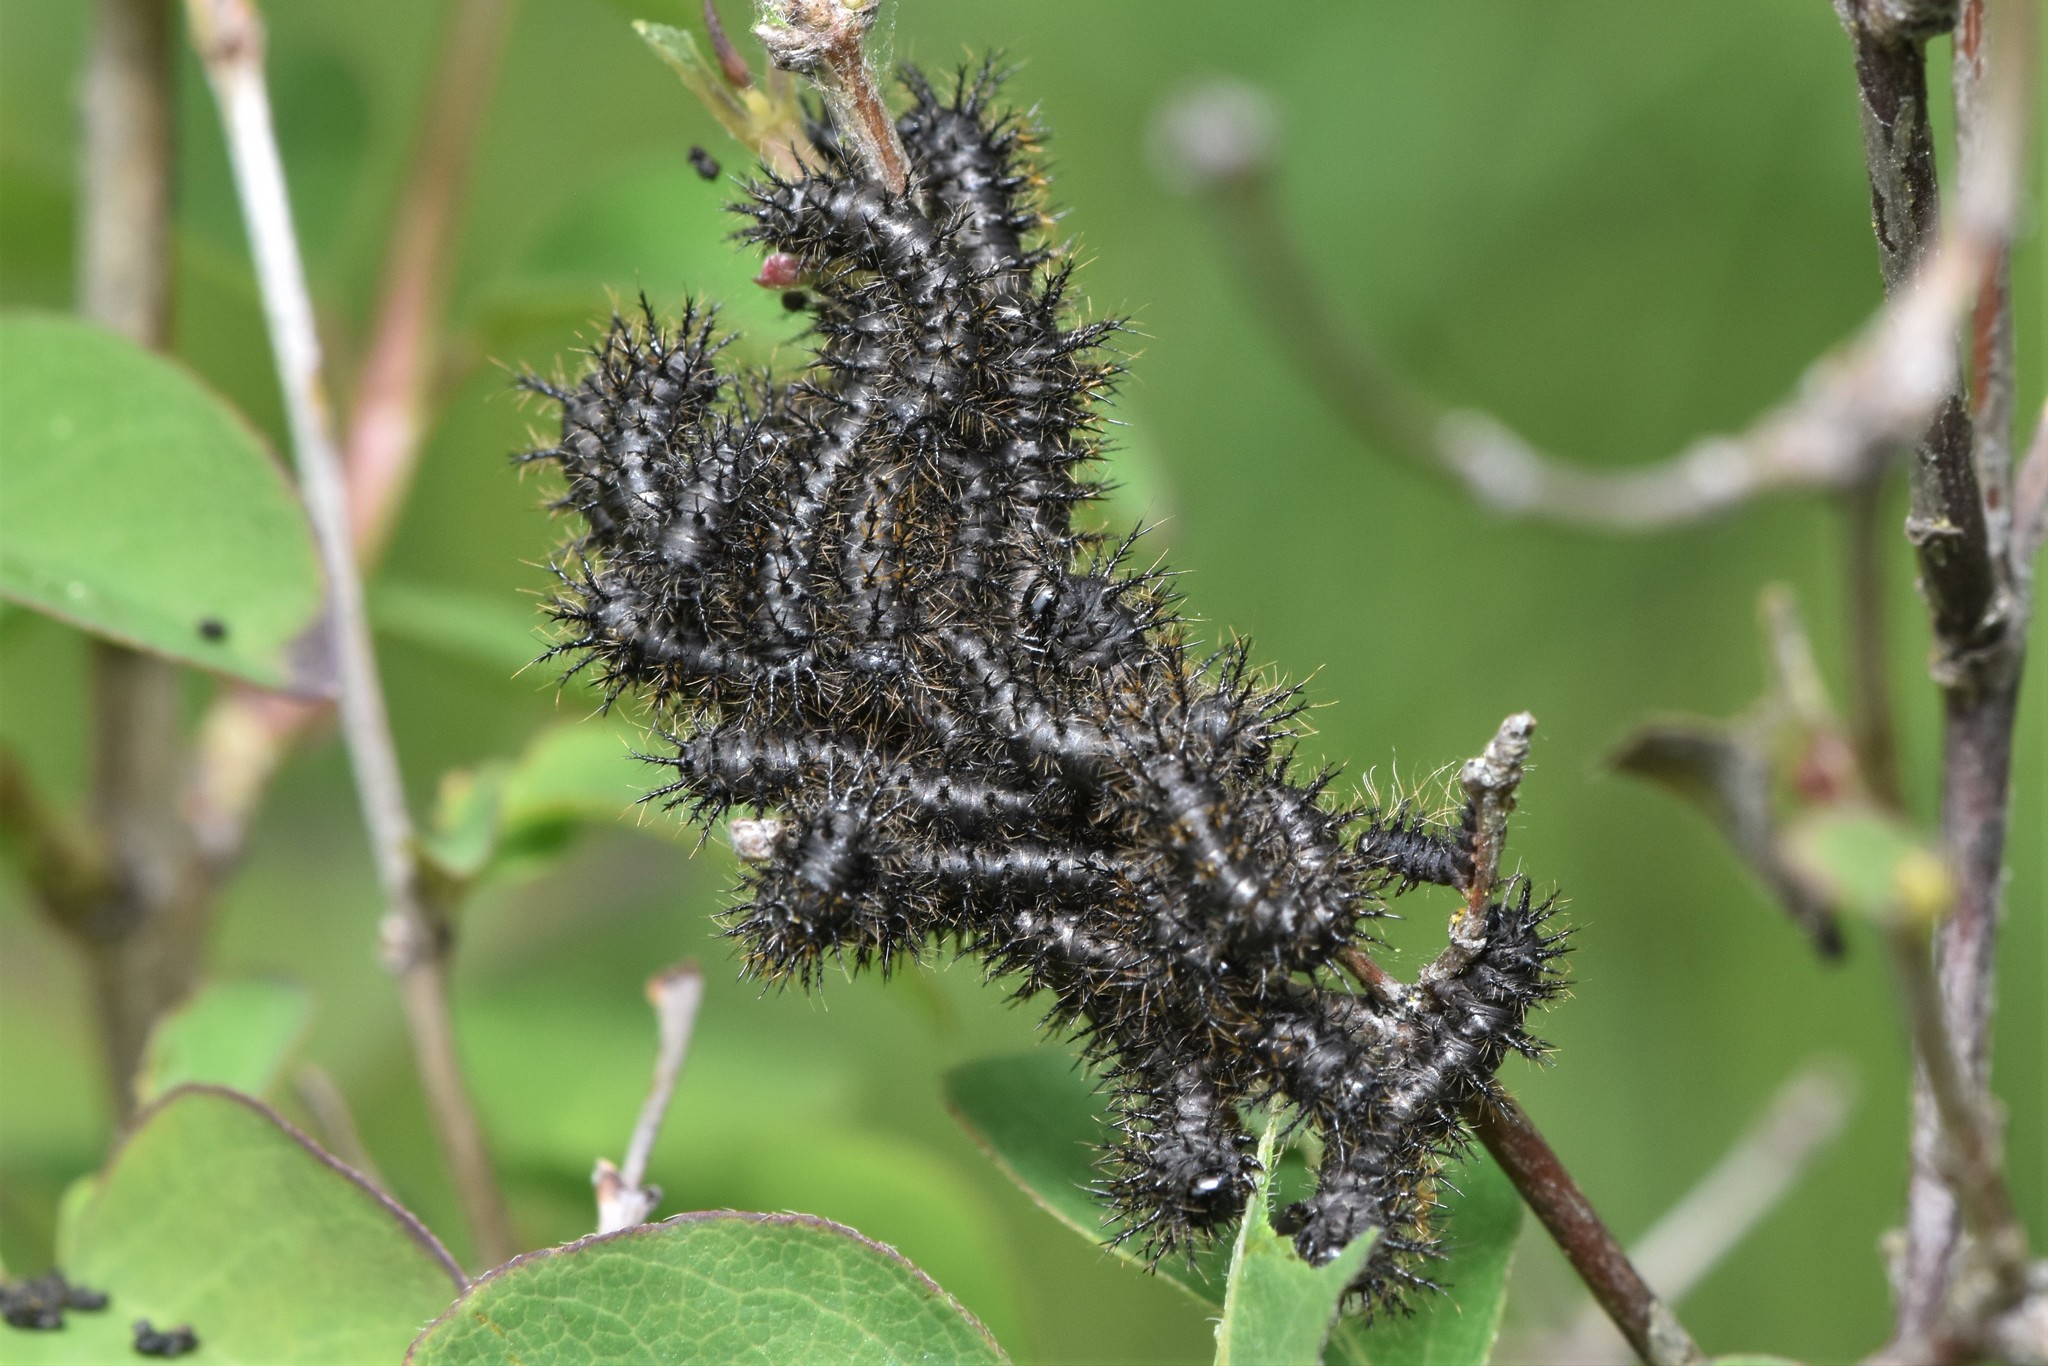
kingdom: Animalia
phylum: Arthropoda
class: Insecta
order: Lepidoptera
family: Saturniidae
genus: Hemileuca
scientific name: Hemileuca eglanterina
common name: Western sheepmoth
